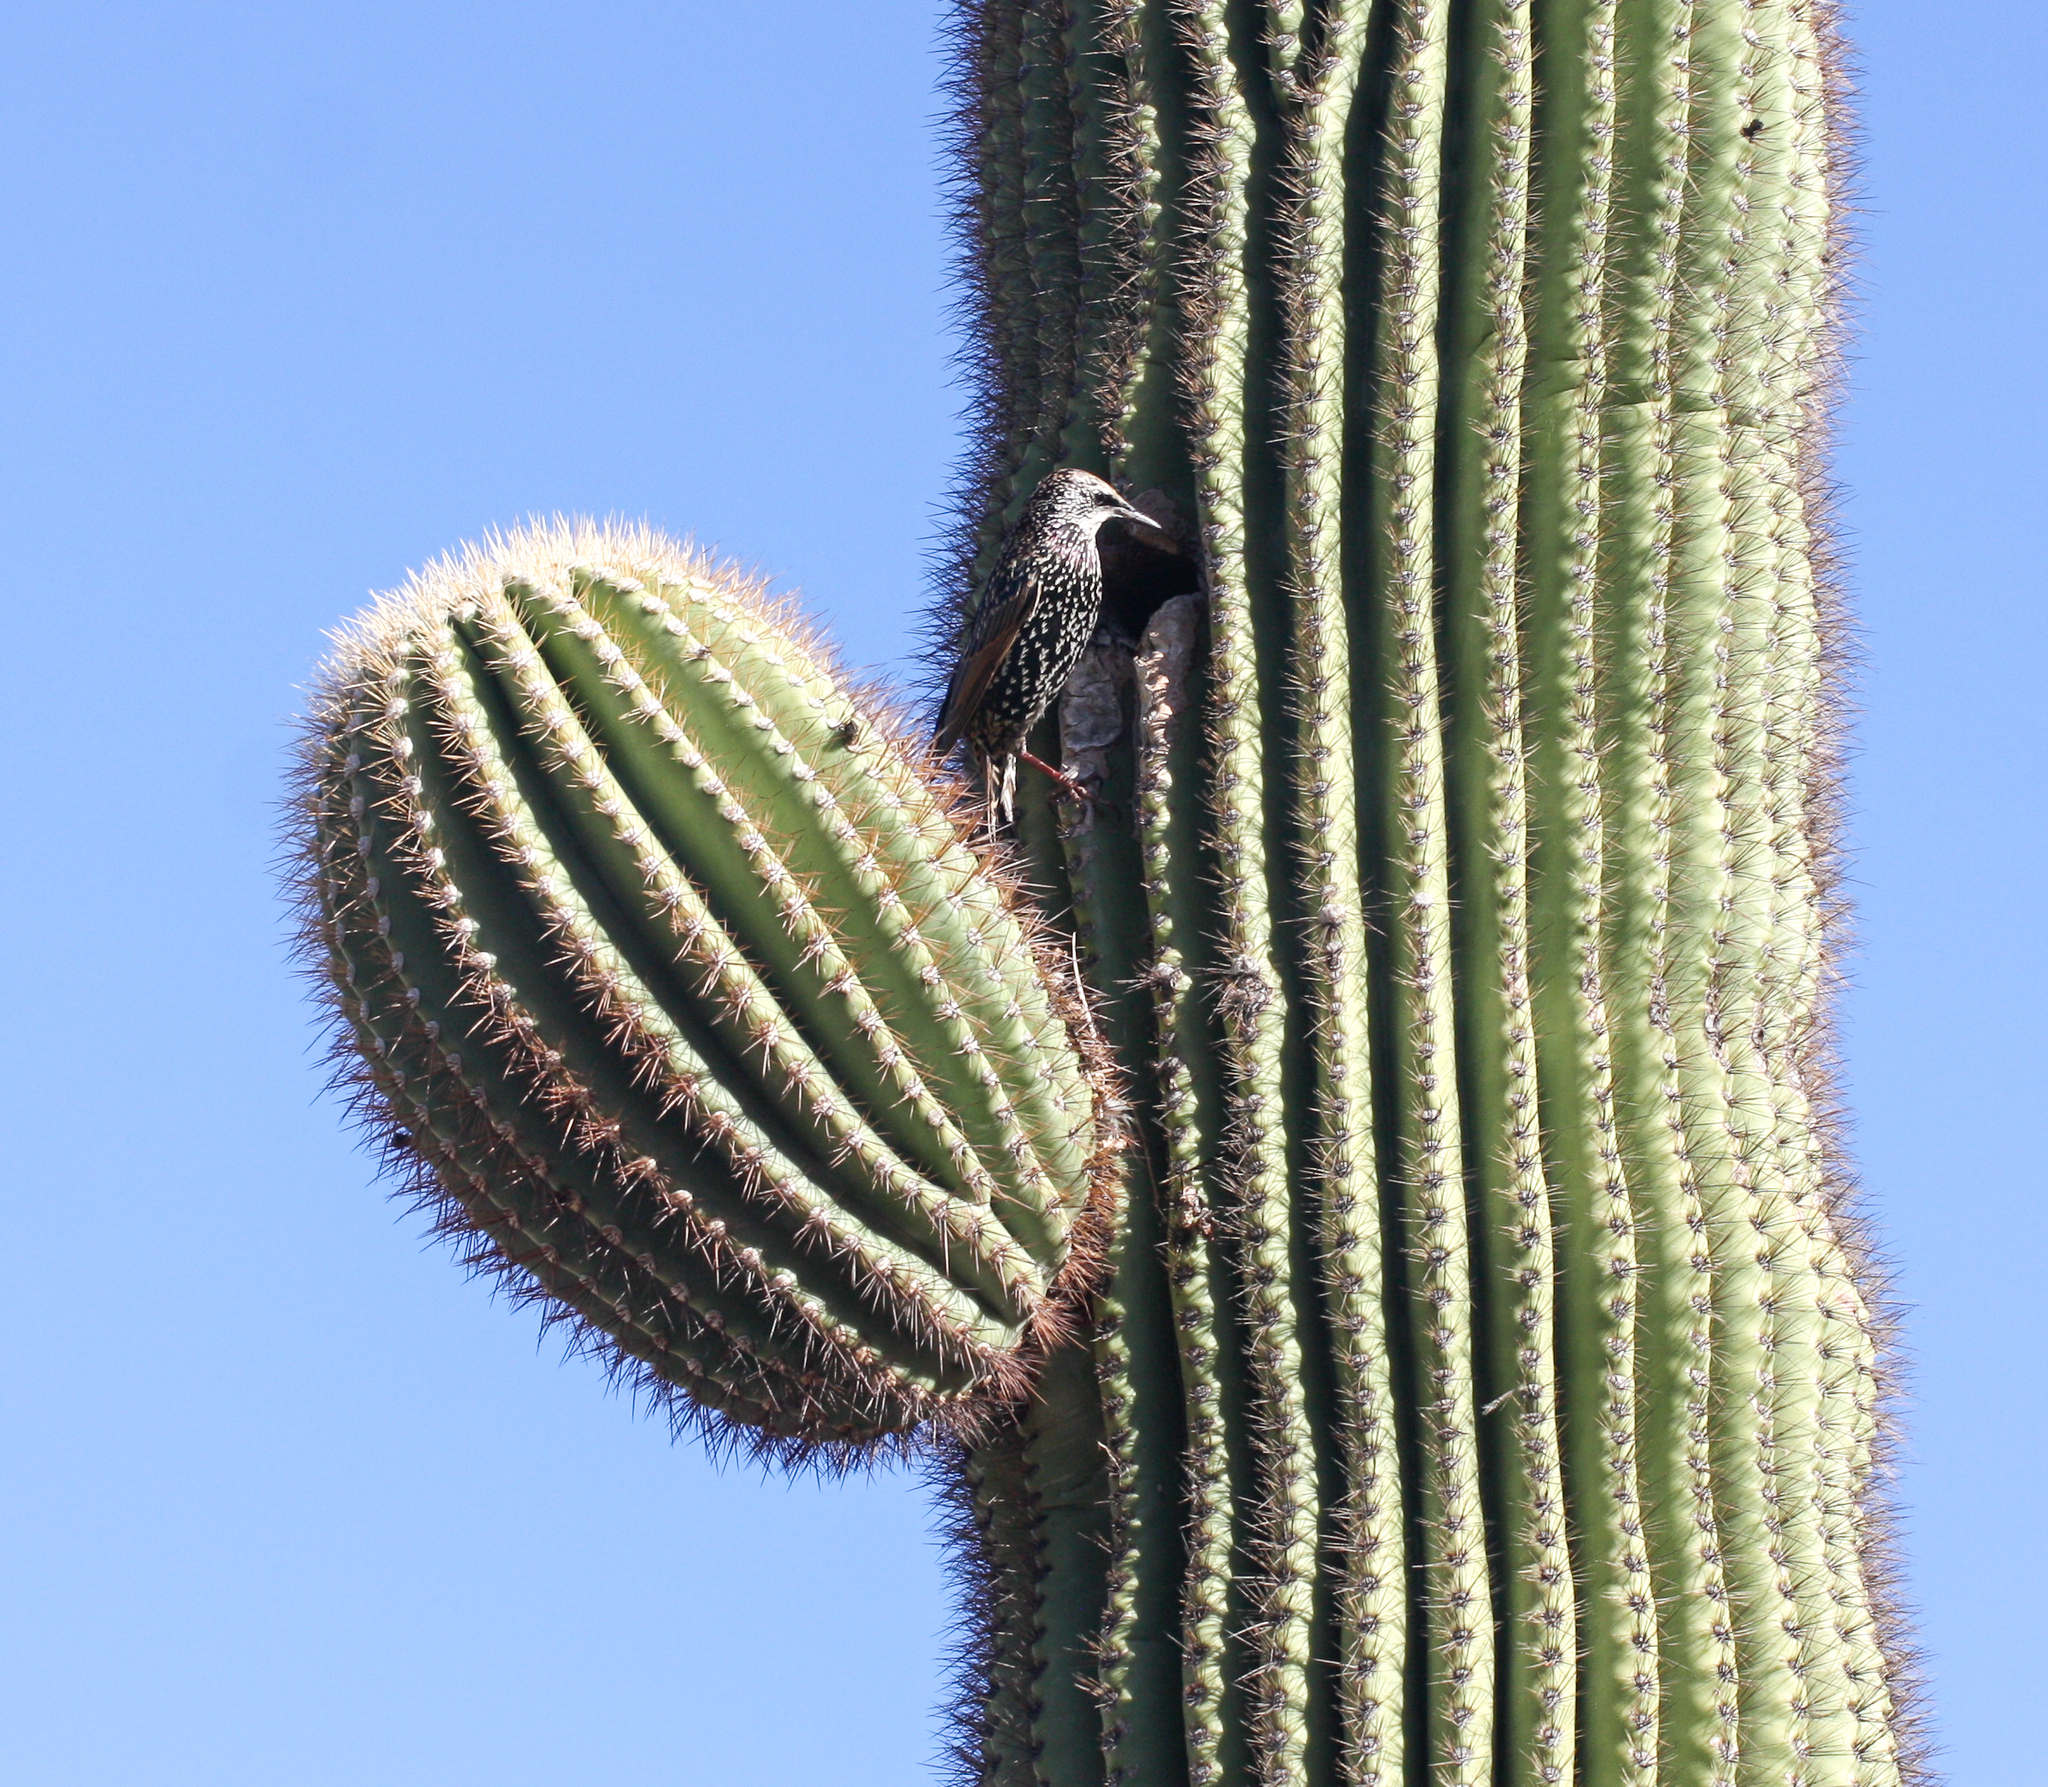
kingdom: Animalia
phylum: Chordata
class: Aves
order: Passeriformes
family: Sturnidae
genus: Sturnus
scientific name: Sturnus vulgaris
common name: Common starling
